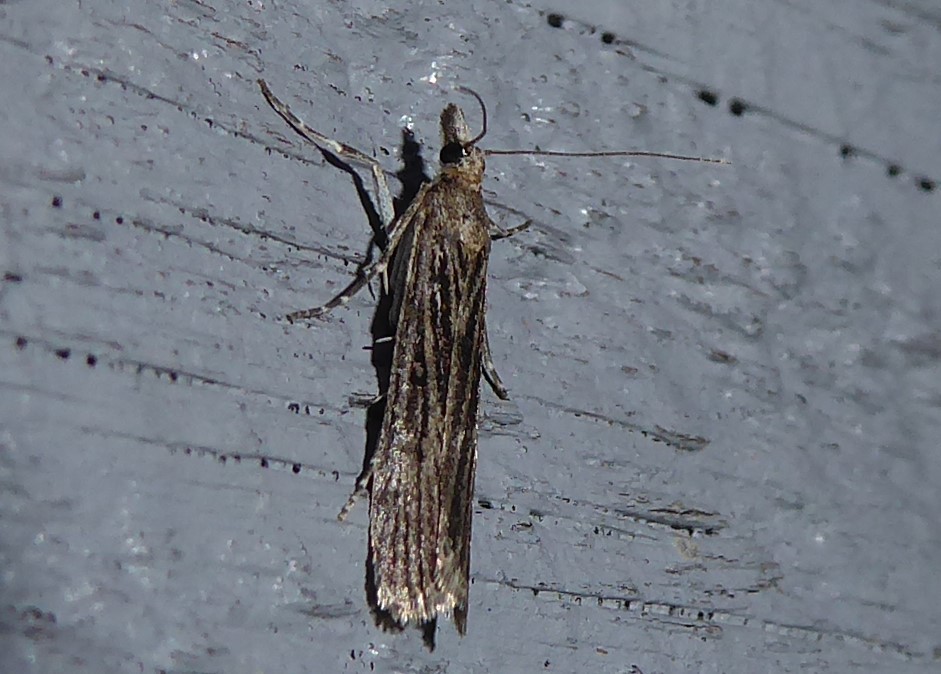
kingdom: Animalia
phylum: Arthropoda
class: Insecta
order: Lepidoptera
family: Crambidae
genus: Eudonia
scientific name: Eudonia atmogramma
